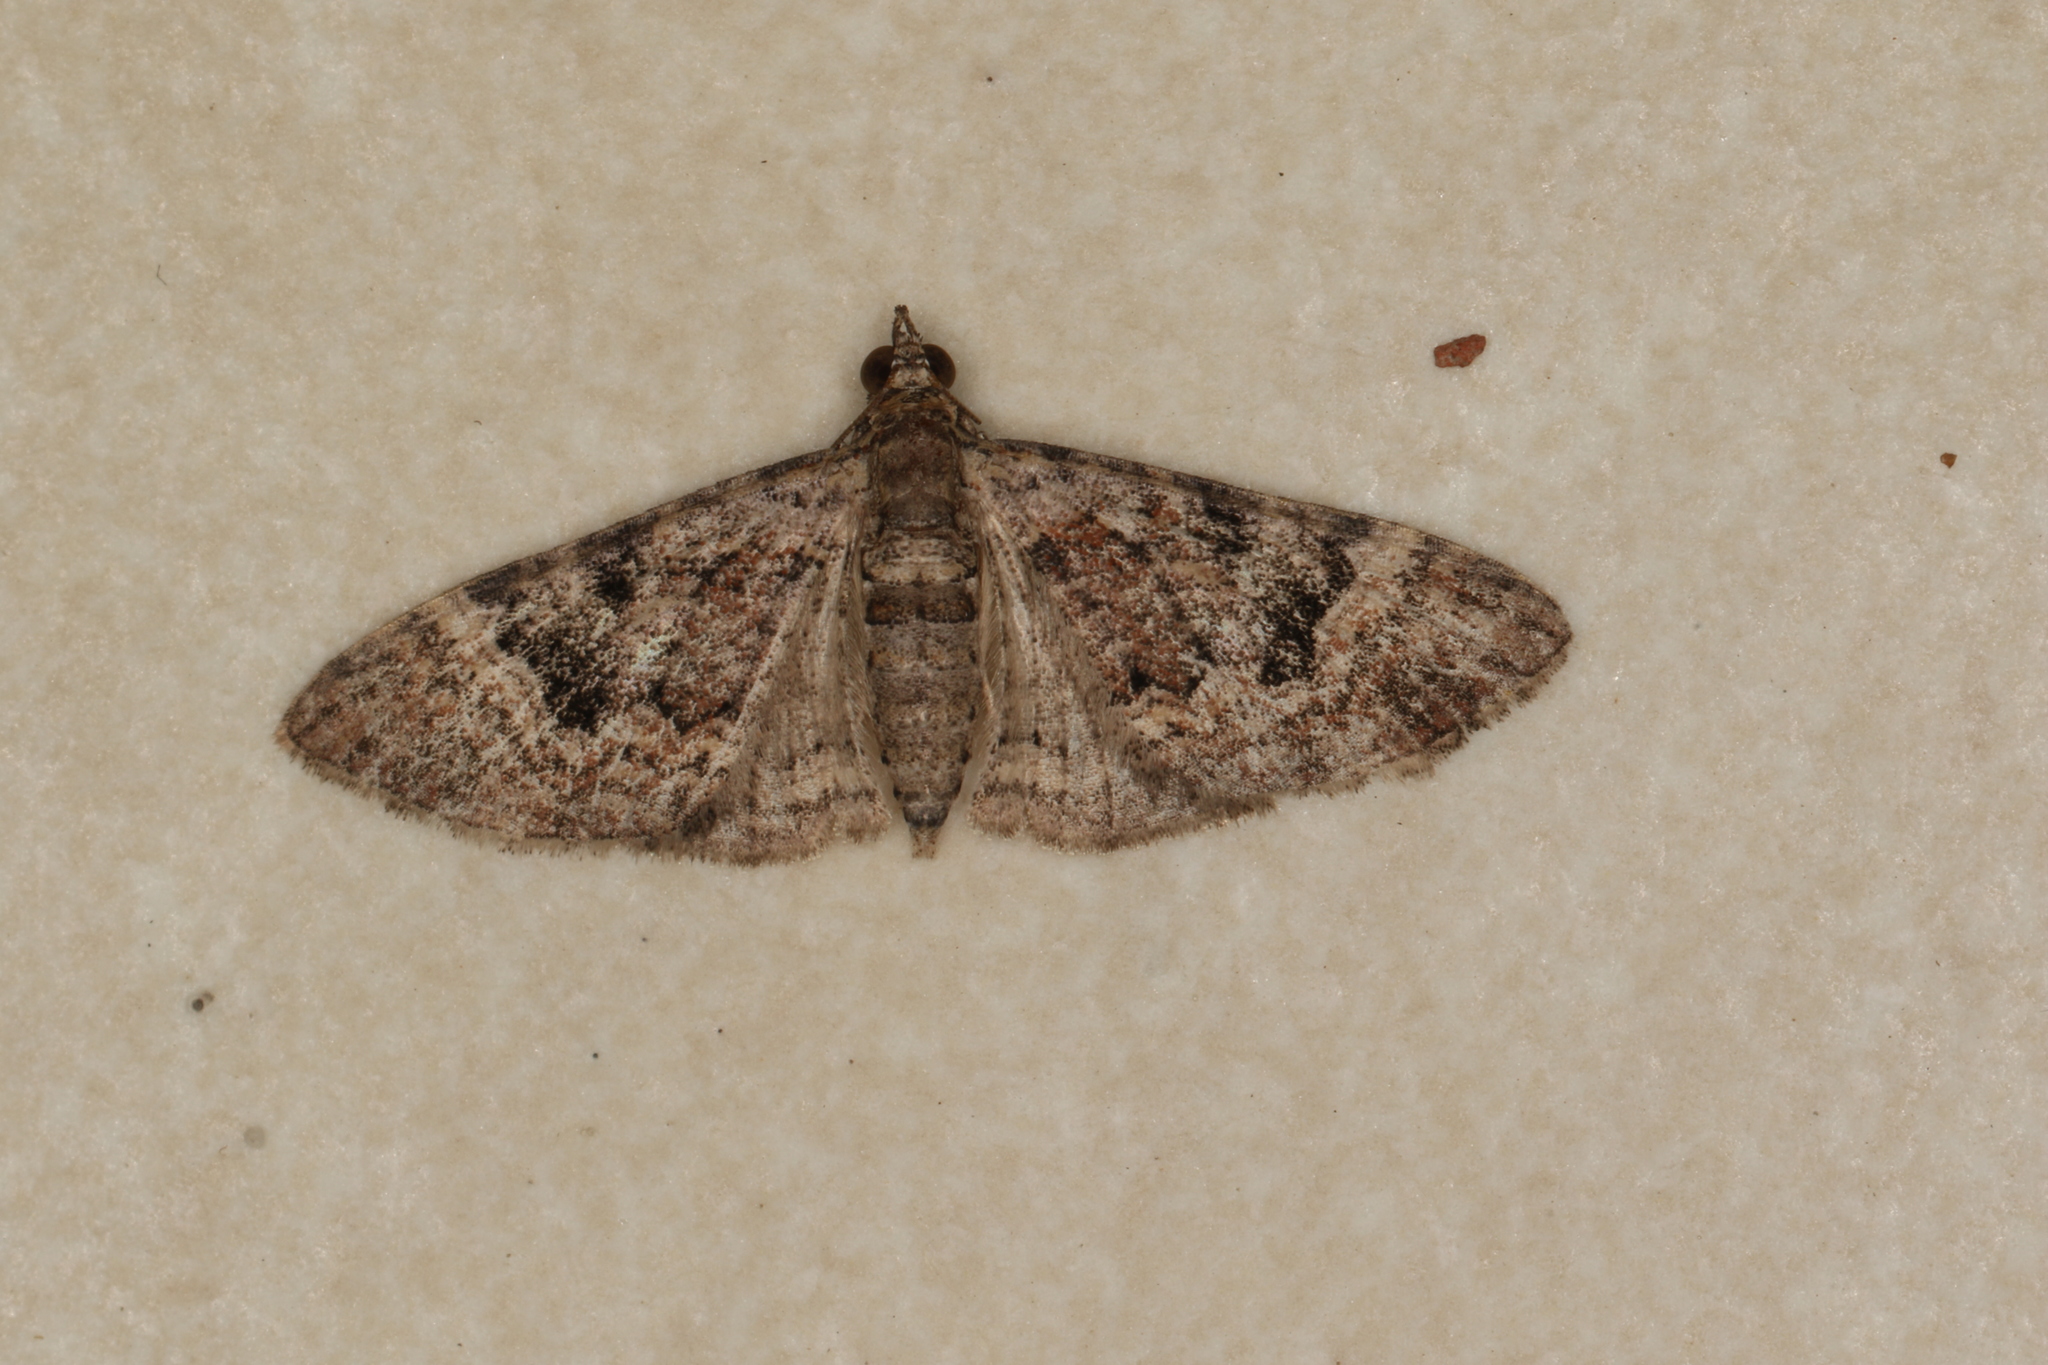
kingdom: Animalia
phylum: Arthropoda
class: Insecta
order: Lepidoptera
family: Geometridae
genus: Mnesiloba
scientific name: Mnesiloba eupitheciata
